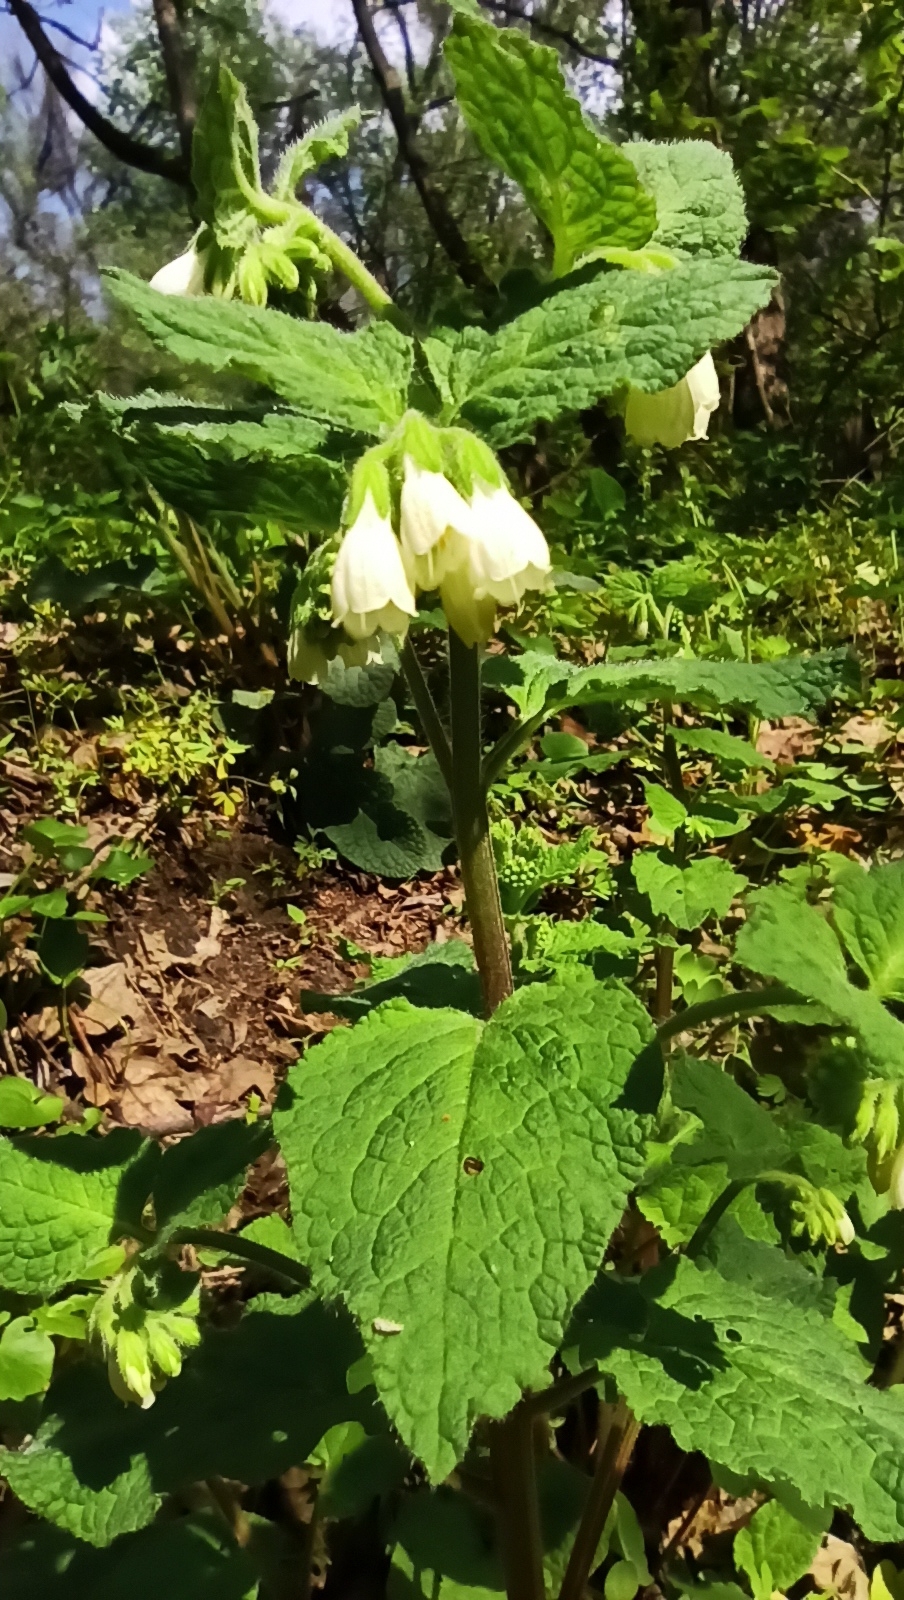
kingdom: Plantae
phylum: Tracheophyta
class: Magnoliopsida
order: Boraginales
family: Boraginaceae
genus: Symphytum
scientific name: Symphytum tauricum
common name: Crimean comfrey
